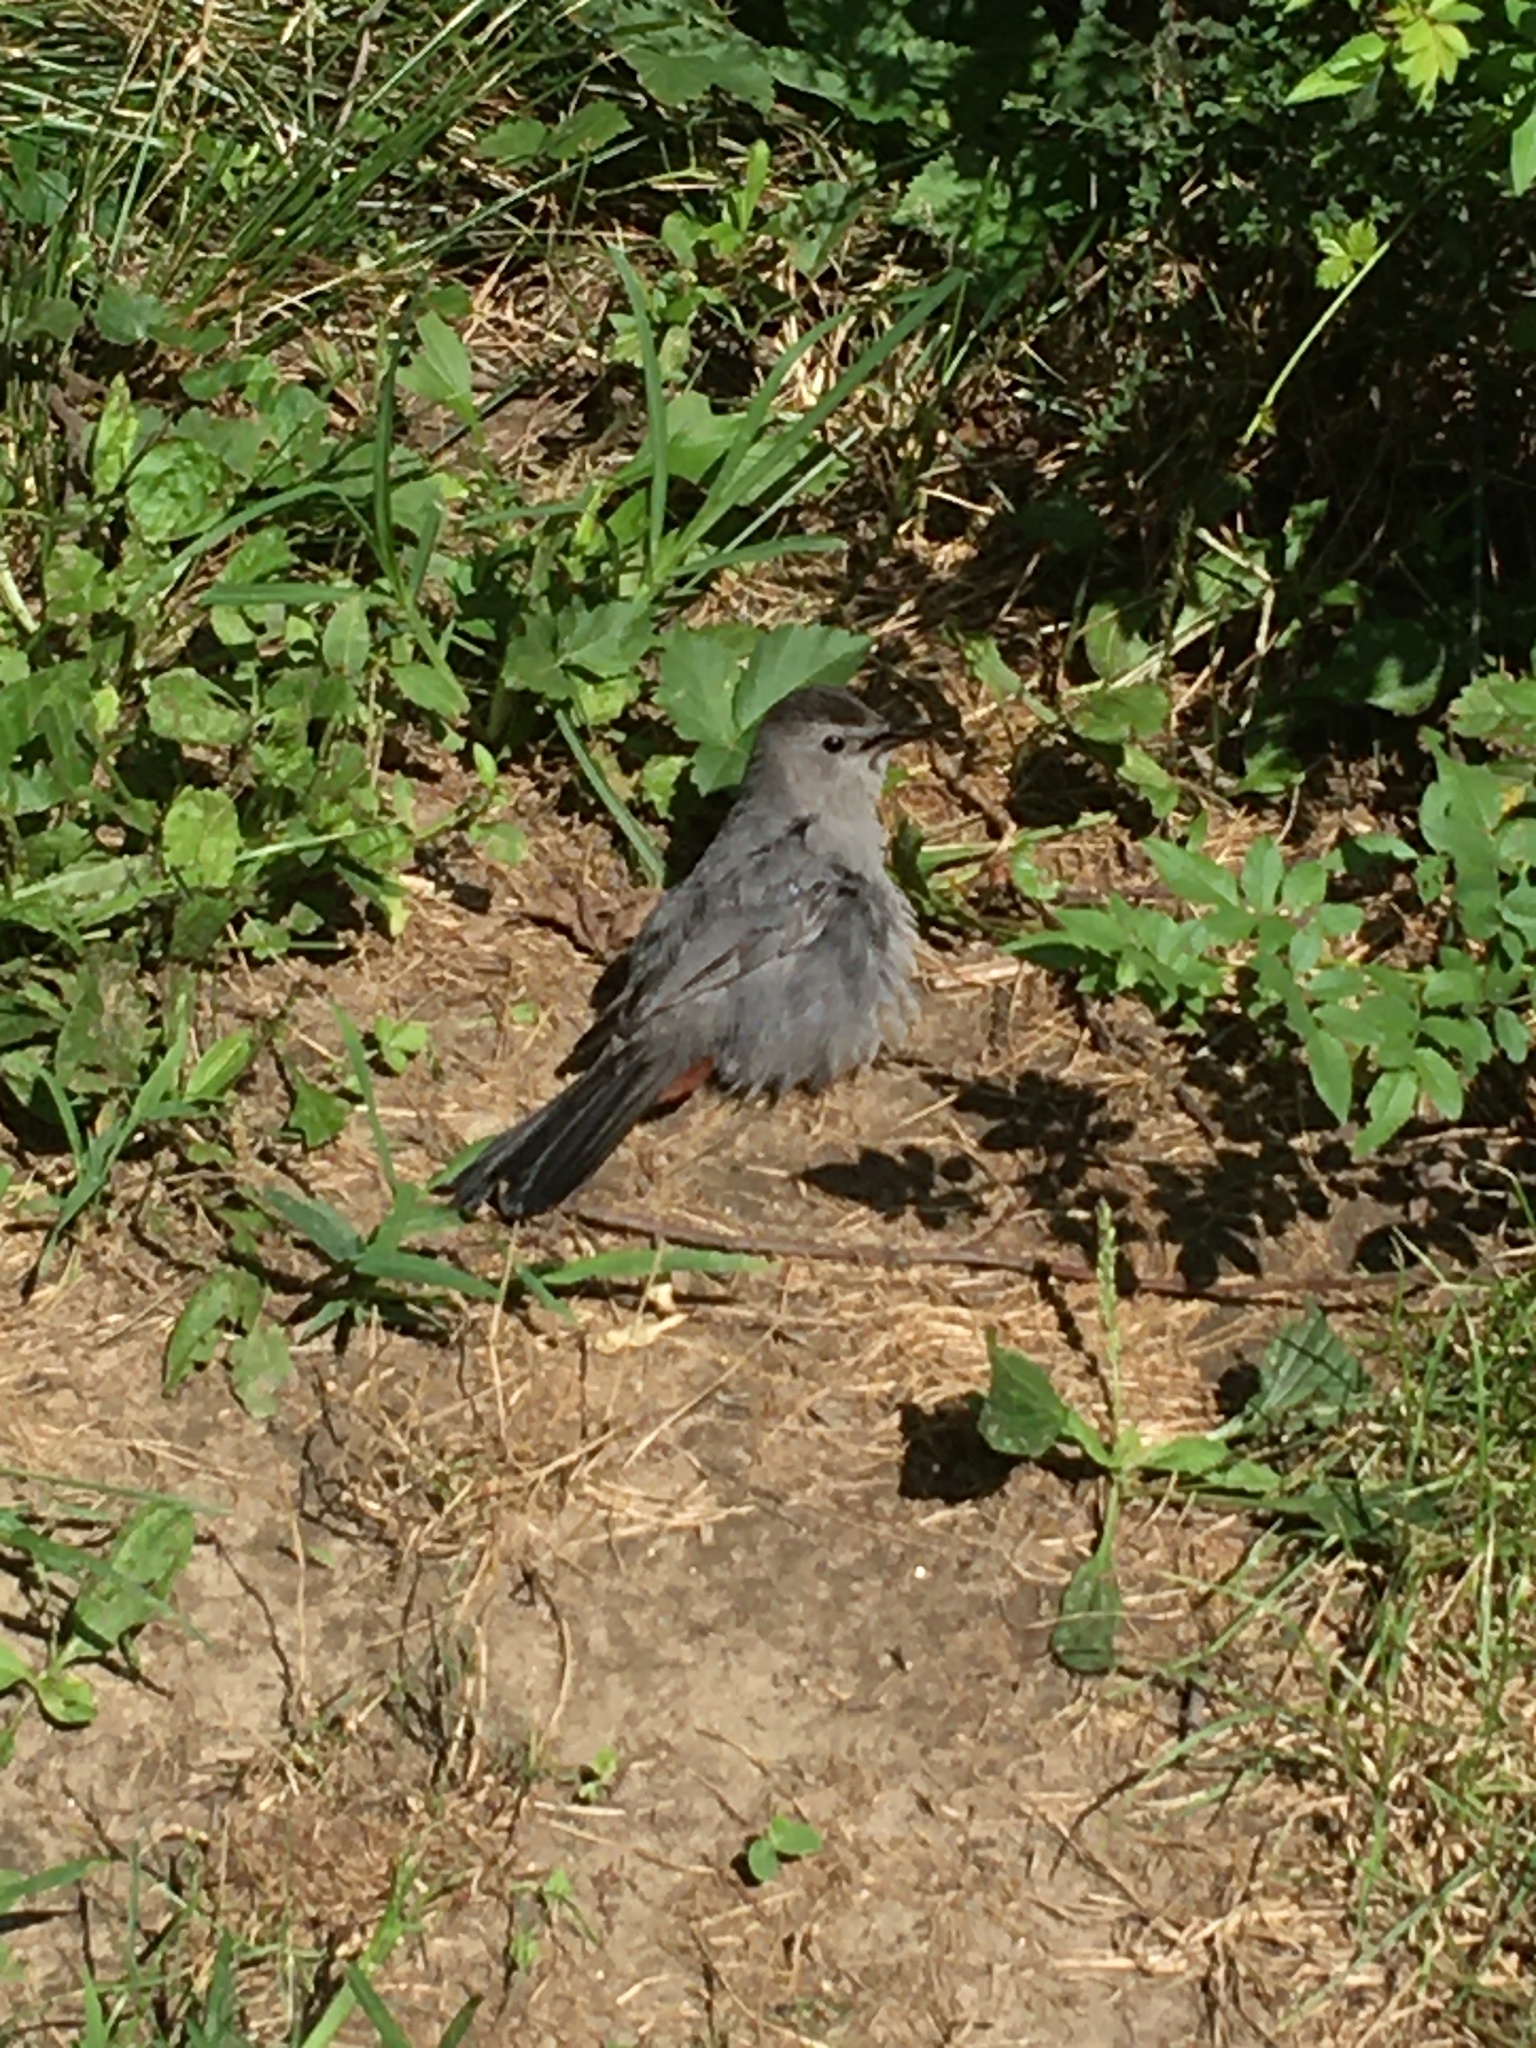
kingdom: Animalia
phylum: Chordata
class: Aves
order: Passeriformes
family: Mimidae
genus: Dumetella
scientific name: Dumetella carolinensis
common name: Gray catbird
